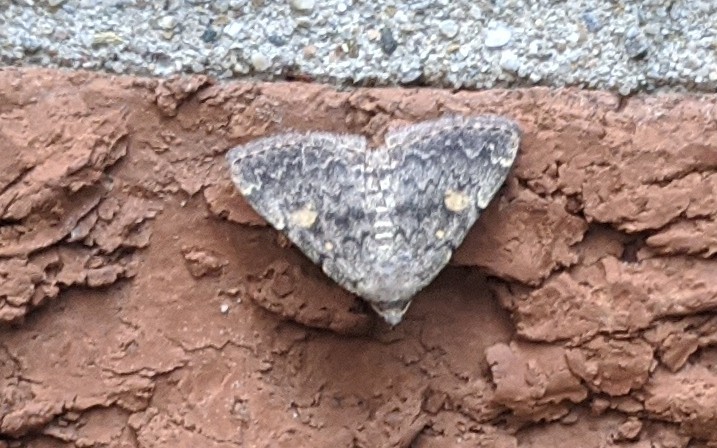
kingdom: Animalia
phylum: Arthropoda
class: Insecta
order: Lepidoptera
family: Erebidae
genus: Idia
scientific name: Idia aemula
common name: Common idia moth
